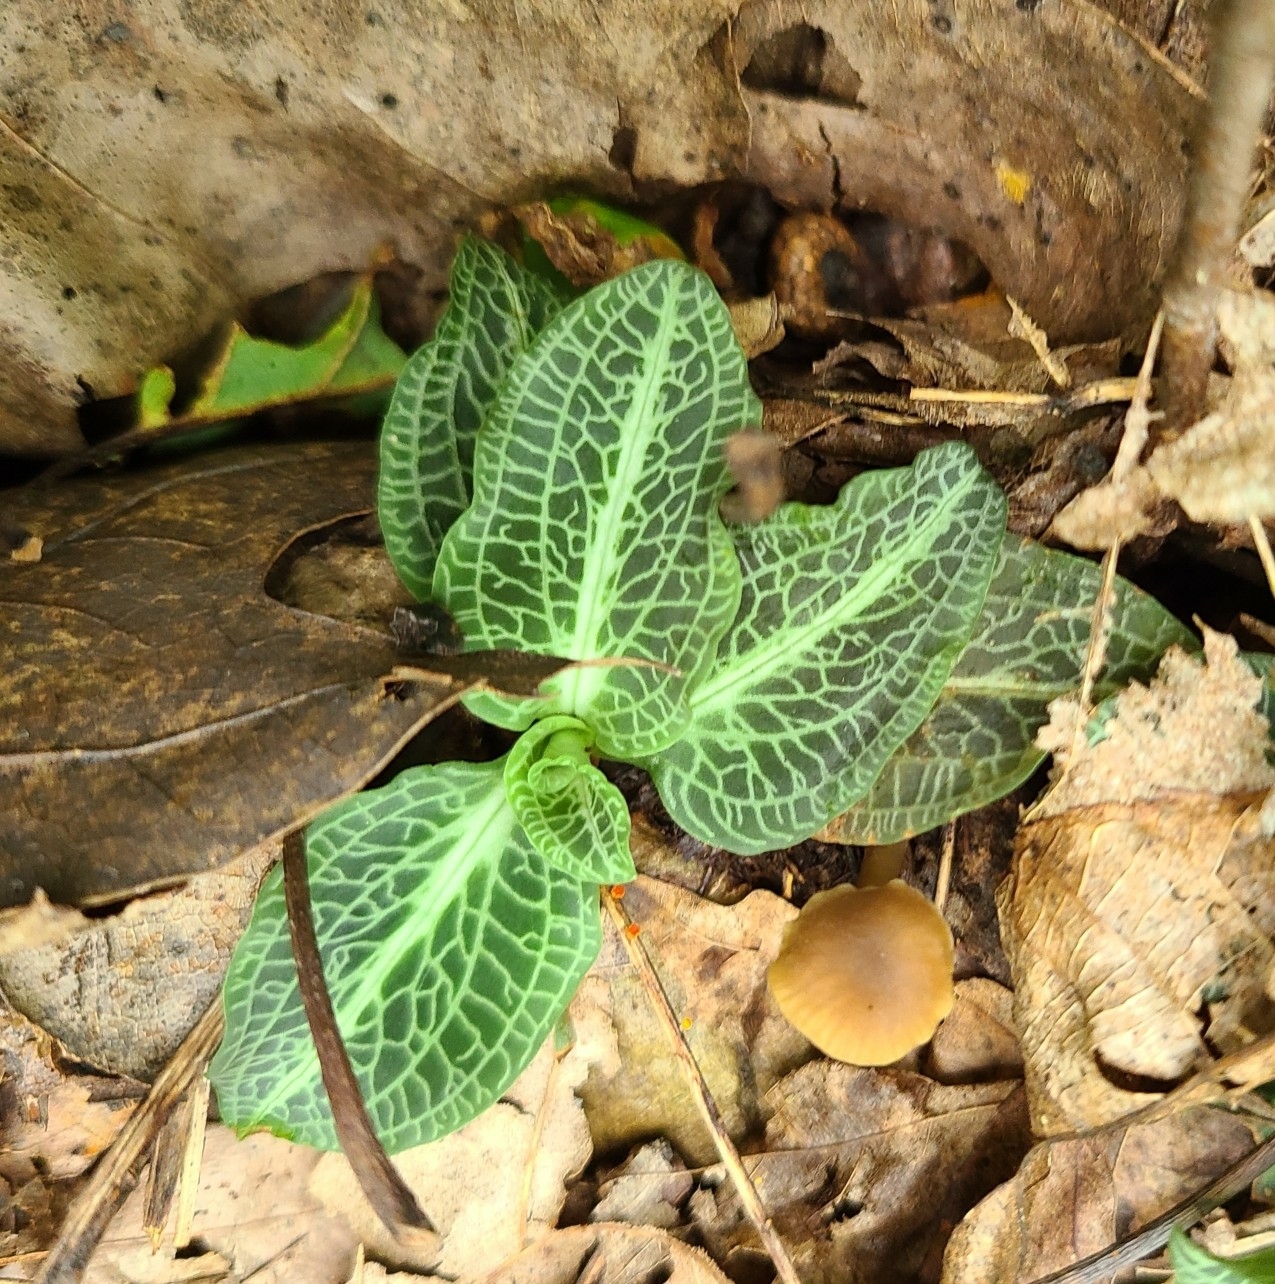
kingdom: Plantae
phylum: Tracheophyta
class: Liliopsida
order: Asparagales
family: Orchidaceae
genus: Goodyera
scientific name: Goodyera pubescens
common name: Downy rattlesnake-plantain
